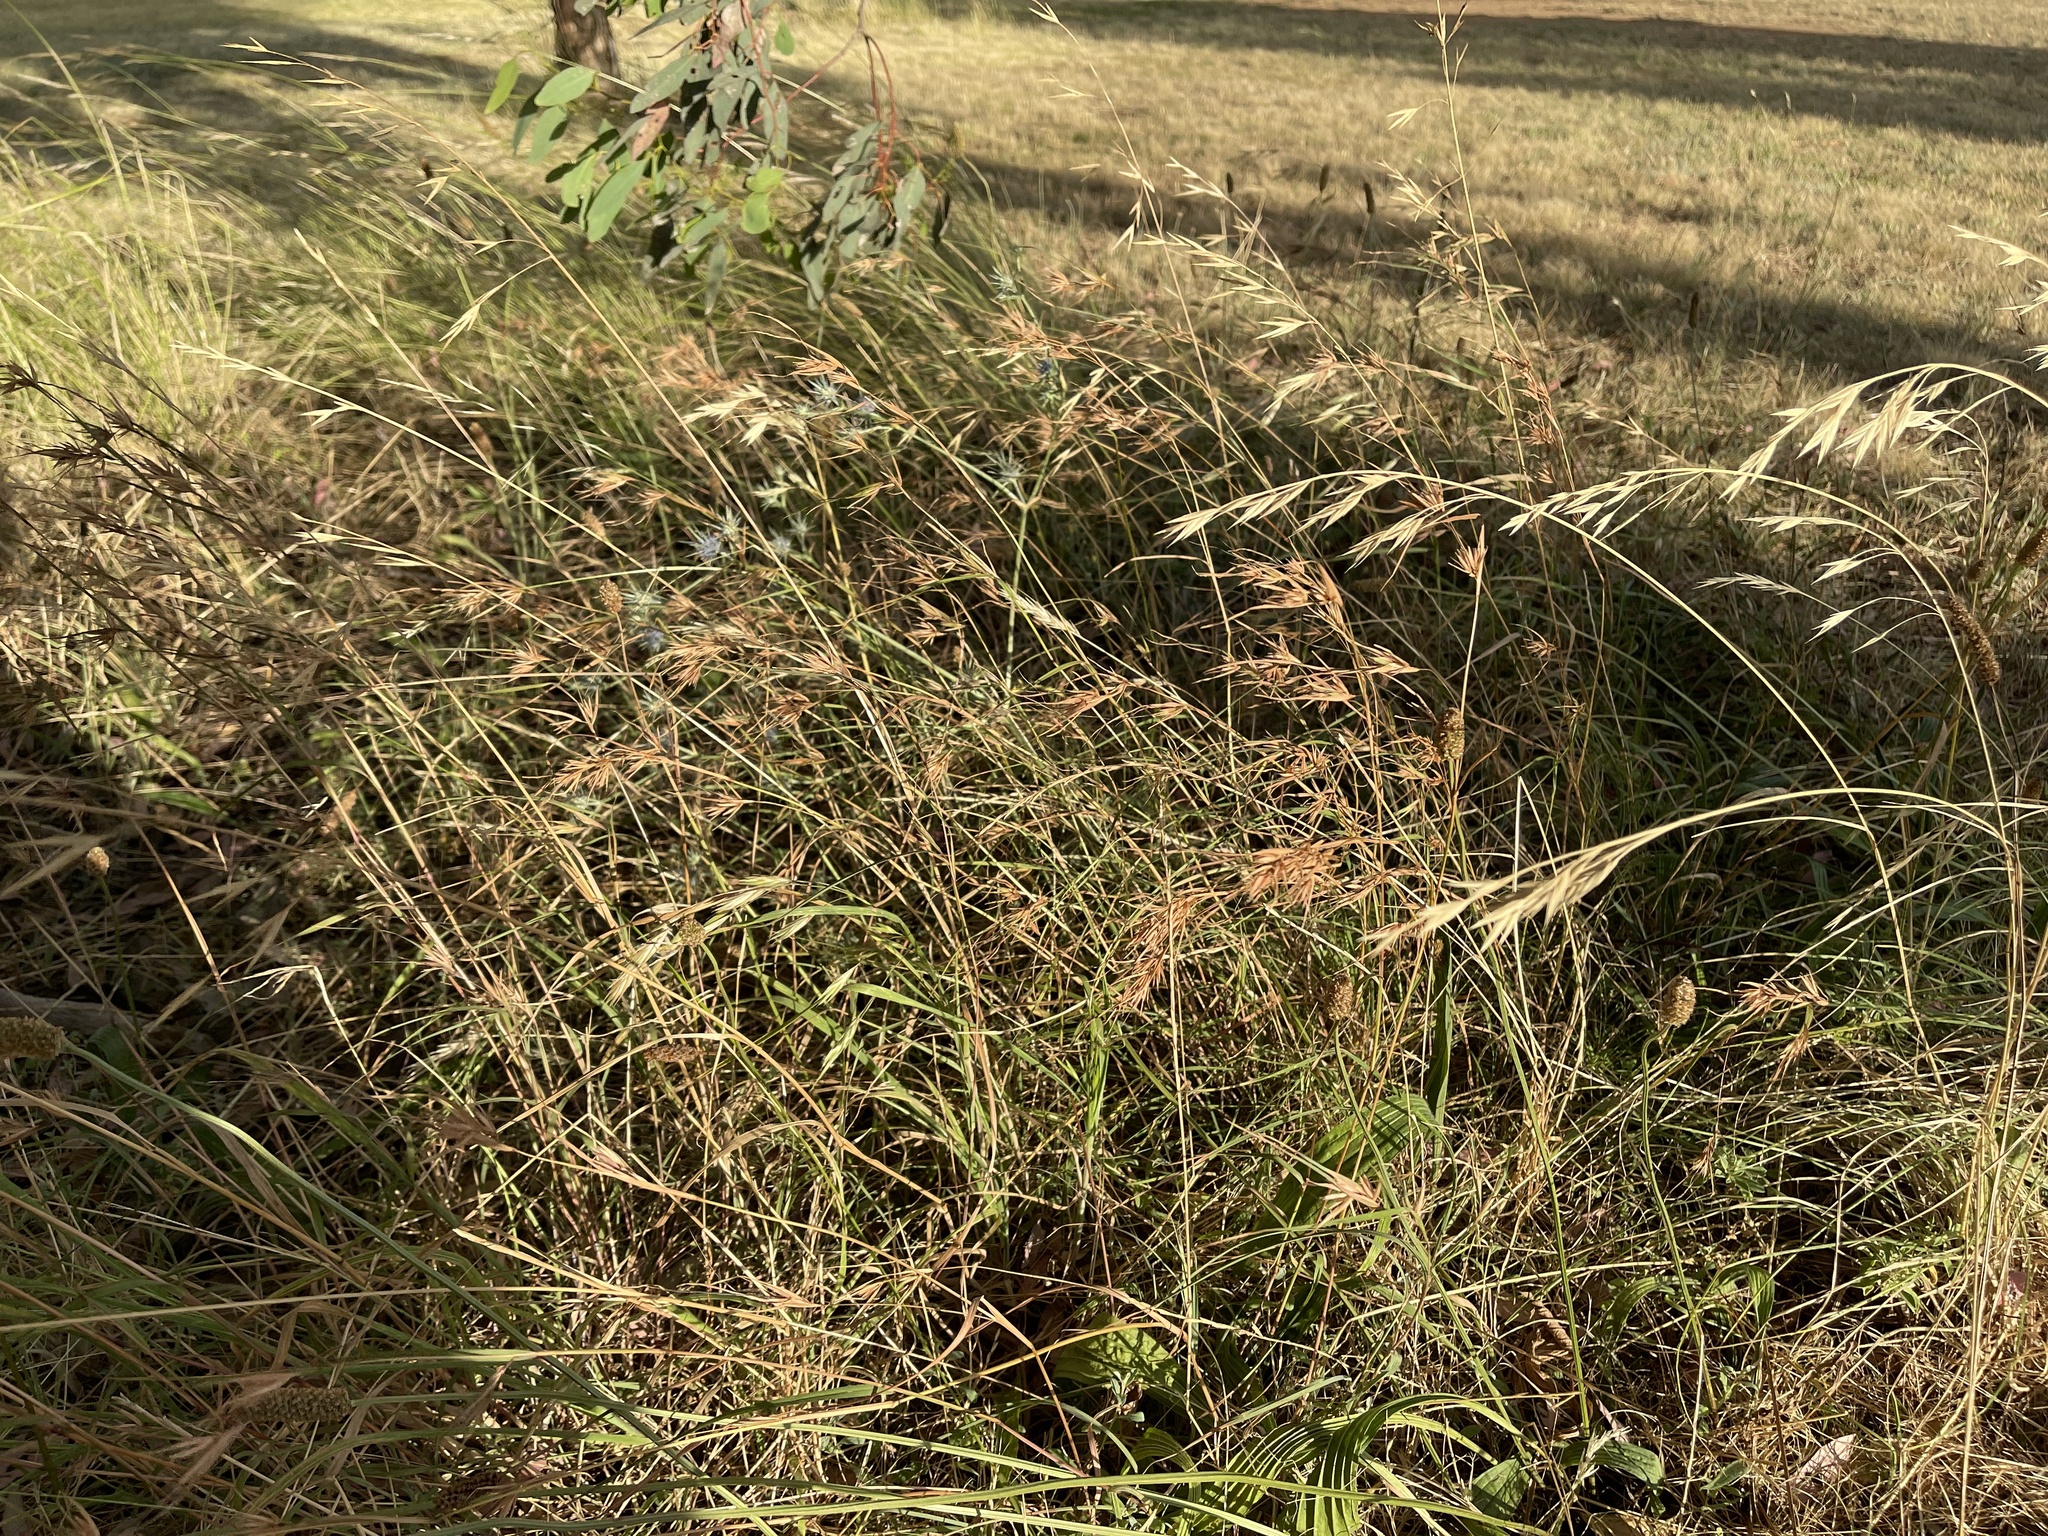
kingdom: Plantae
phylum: Tracheophyta
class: Liliopsida
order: Poales
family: Poaceae
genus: Themeda
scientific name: Themeda triandra
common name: Kangaroo grass
